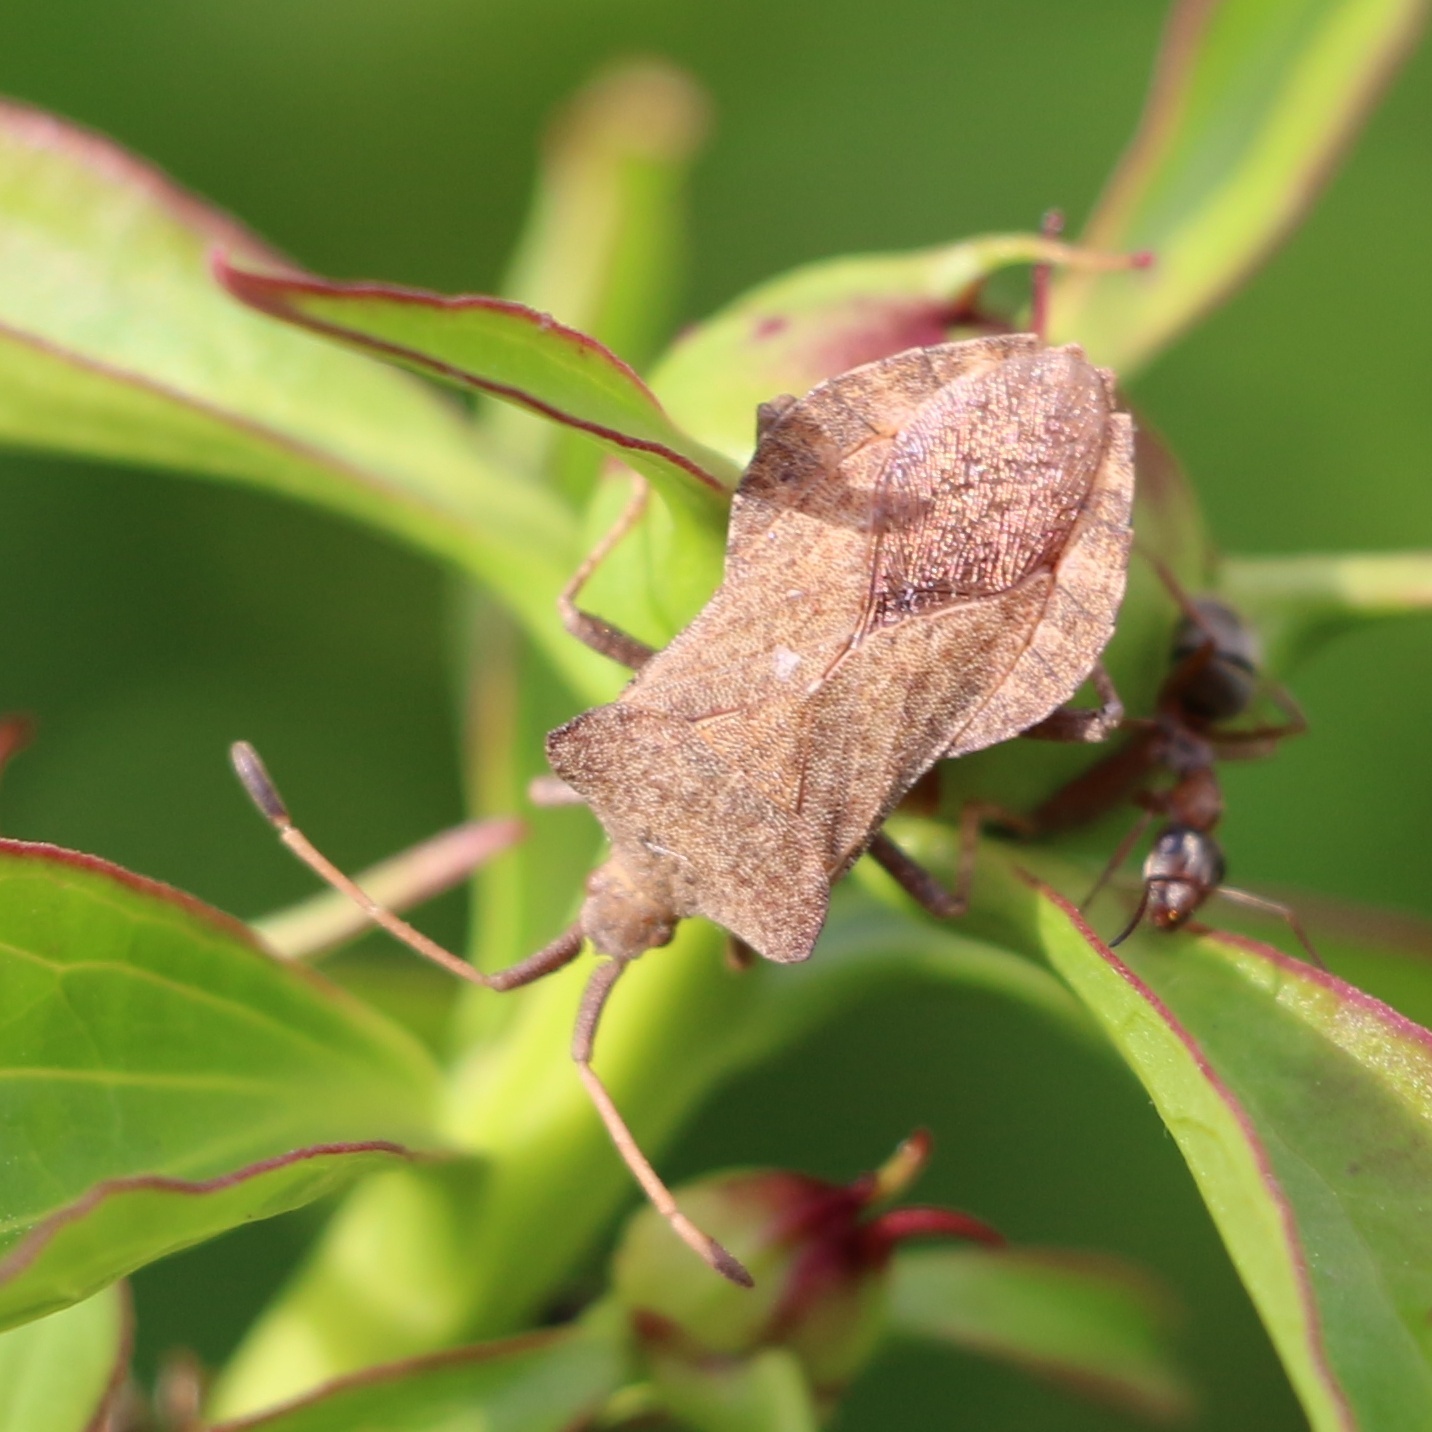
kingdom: Animalia
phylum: Arthropoda
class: Insecta
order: Hemiptera
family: Coreidae
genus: Coreus
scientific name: Coreus marginatus
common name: Dock bug
